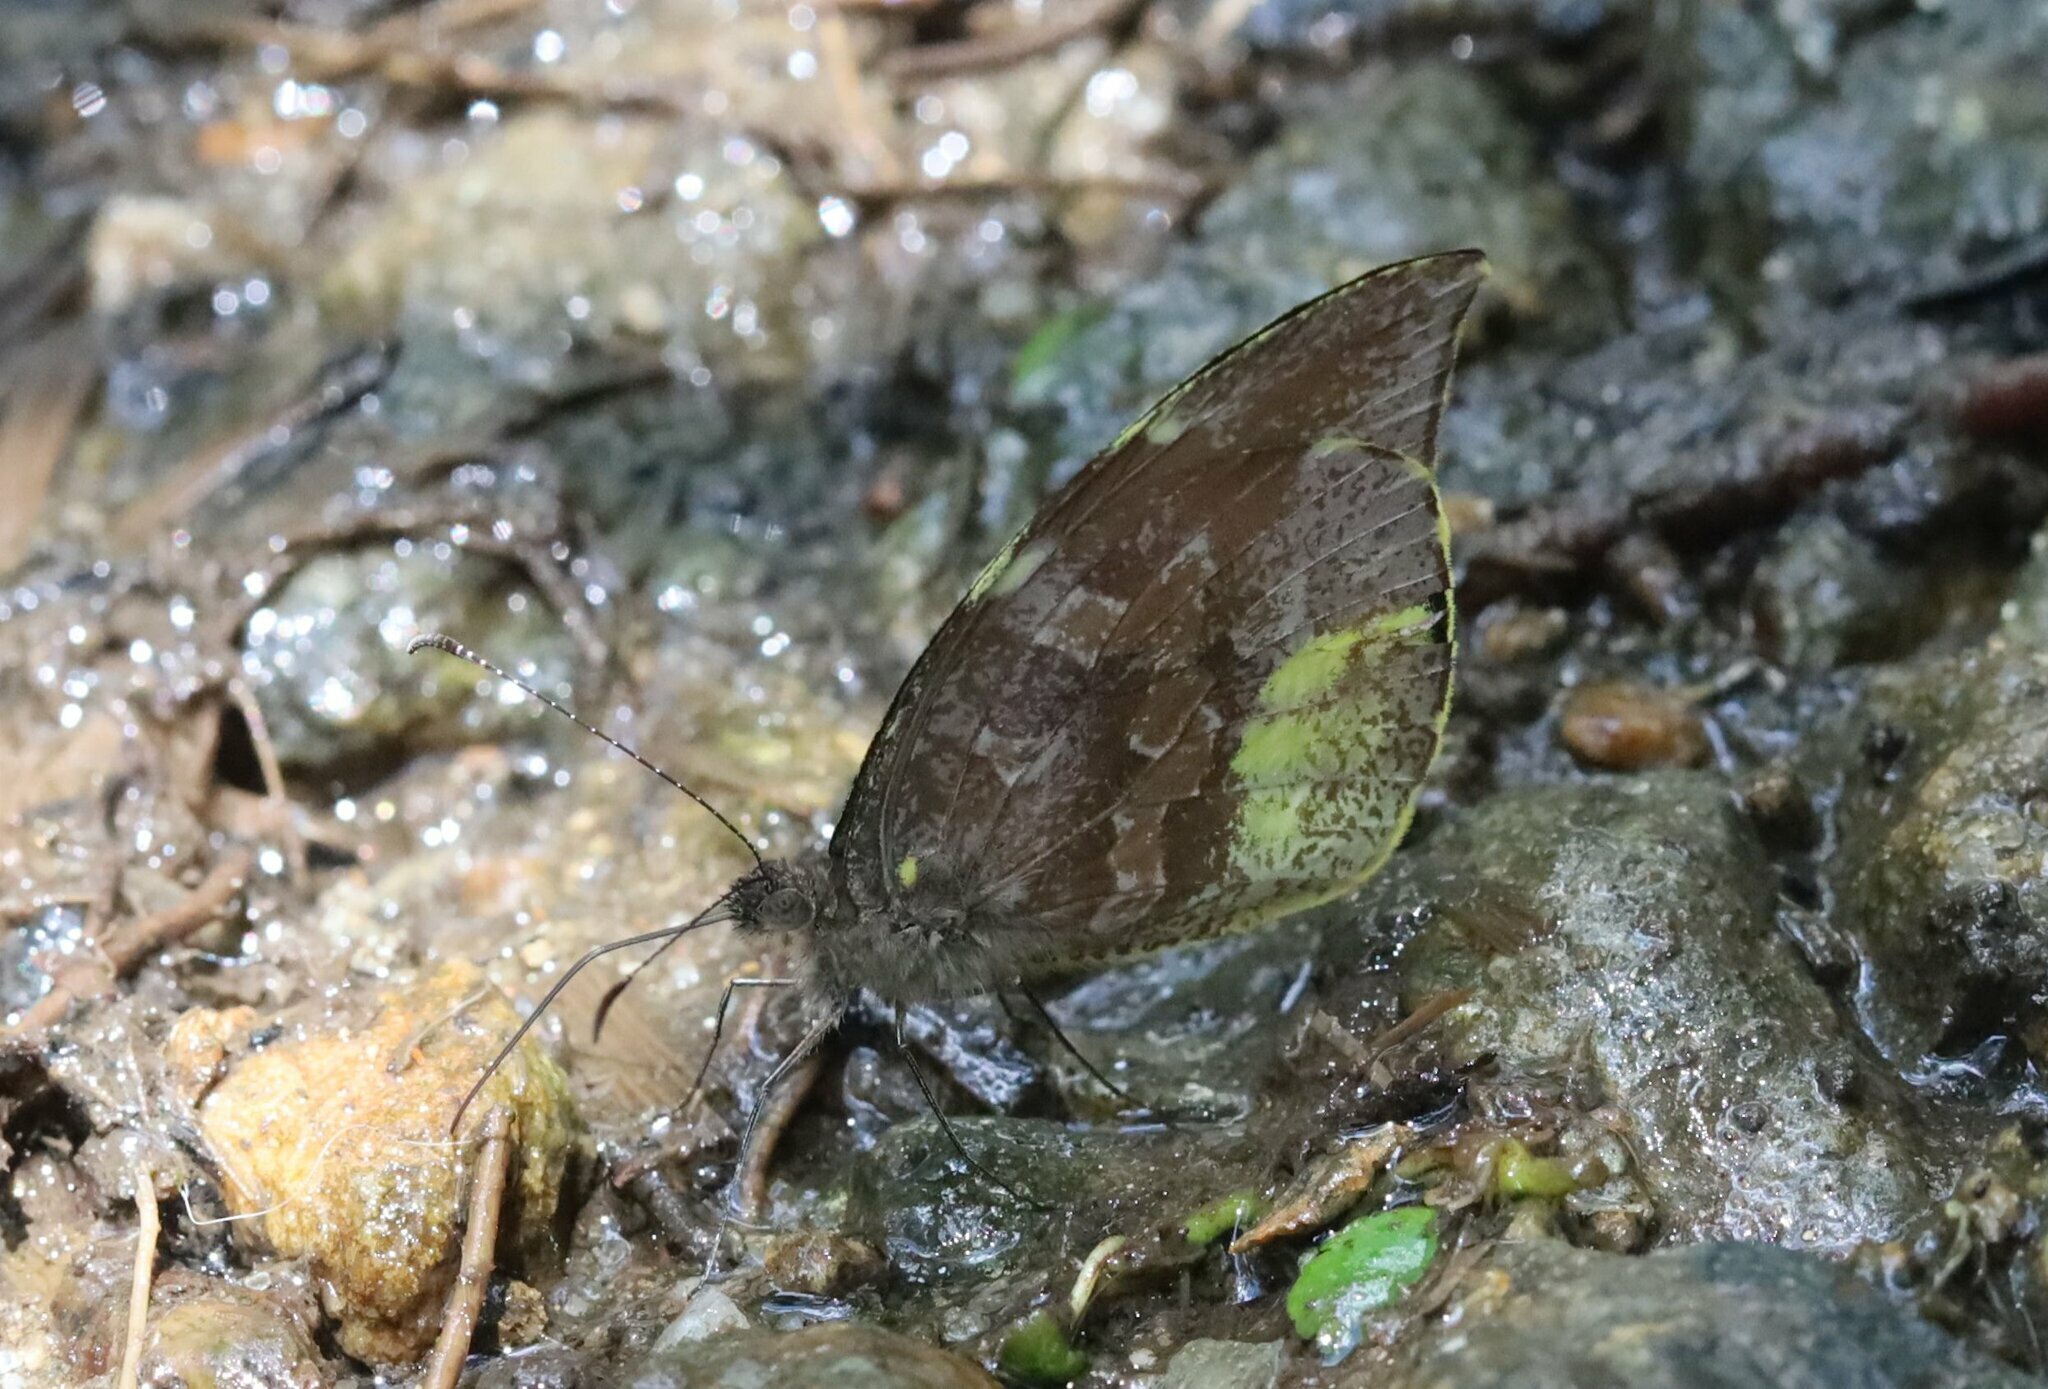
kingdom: Animalia
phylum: Arthropoda
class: Insecta
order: Lepidoptera
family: Pieridae
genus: Lieinix
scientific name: Lieinix nemesis
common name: Frosted mimic-white
